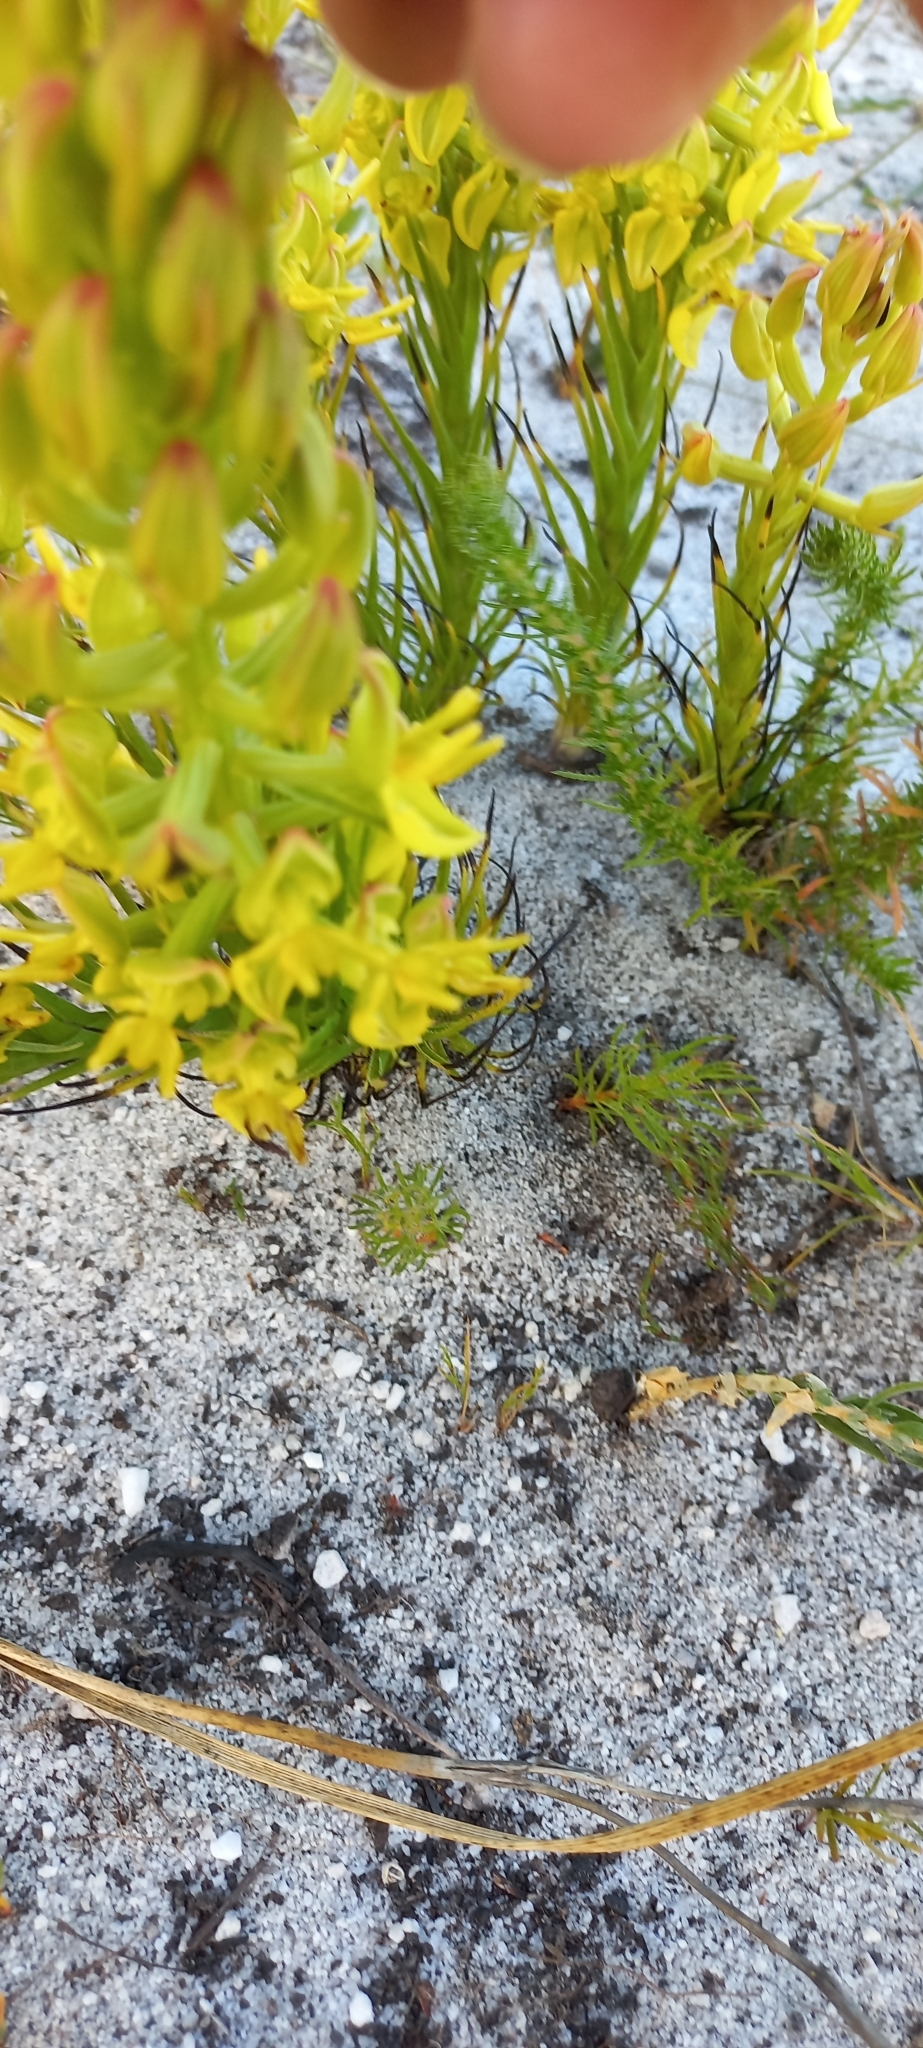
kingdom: Plantae
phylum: Tracheophyta
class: Liliopsida
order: Asparagales
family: Orchidaceae
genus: Ceratandra
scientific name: Ceratandra atrata
